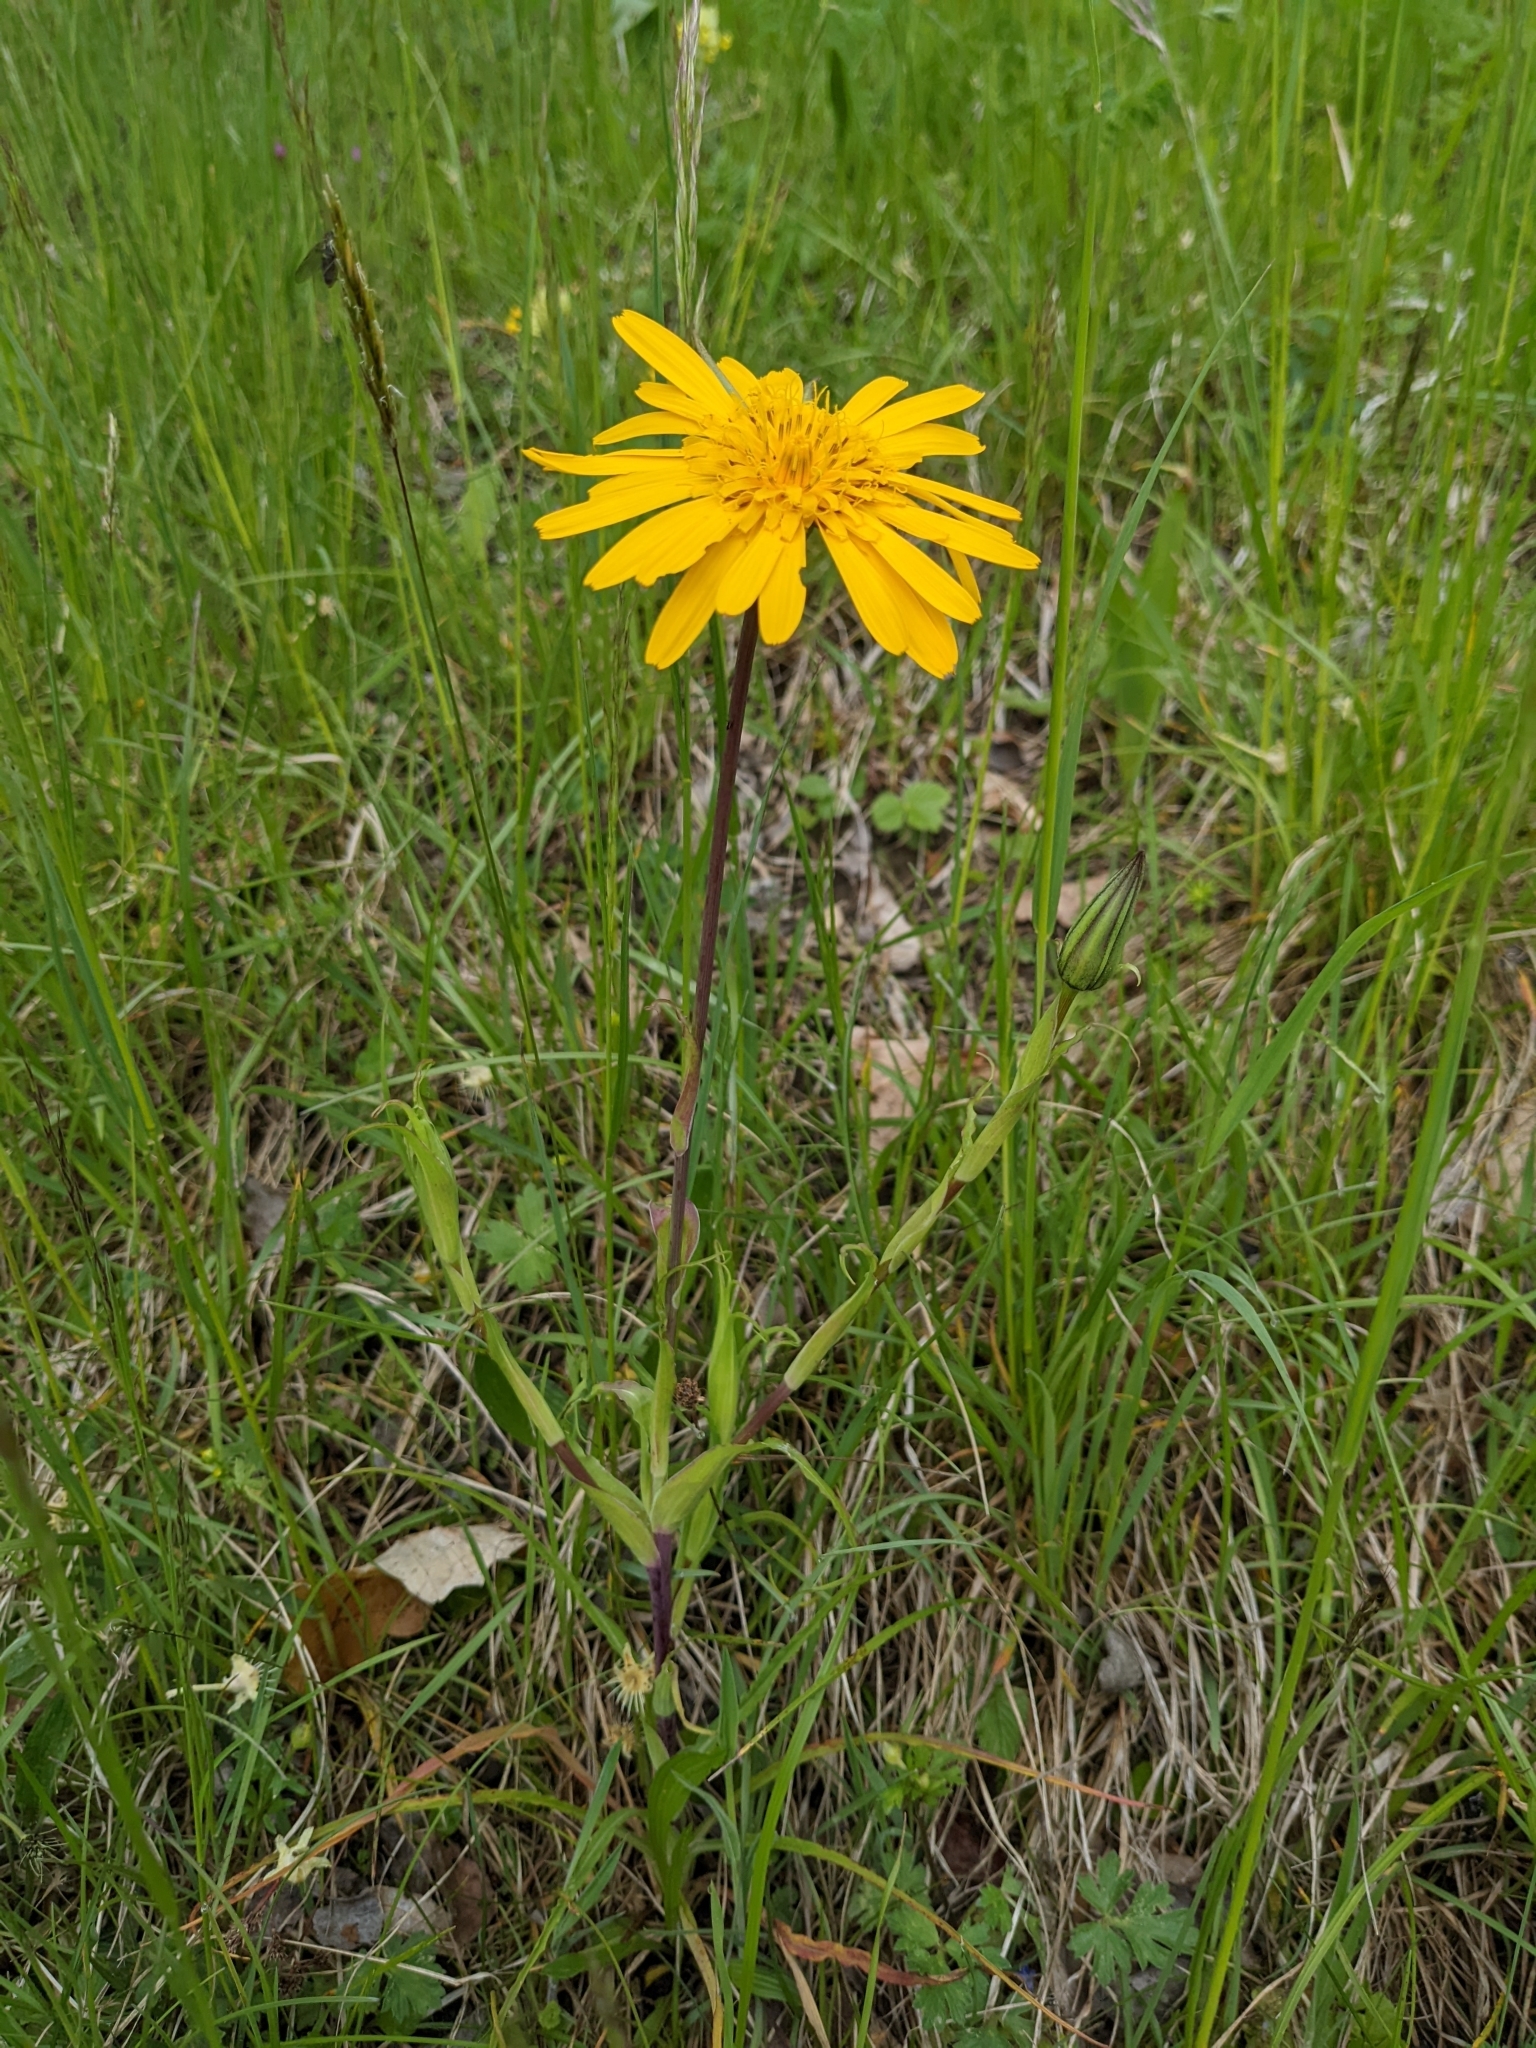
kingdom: Plantae
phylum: Tracheophyta
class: Magnoliopsida
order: Asterales
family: Asteraceae
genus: Tragopogon
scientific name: Tragopogon orientalis
